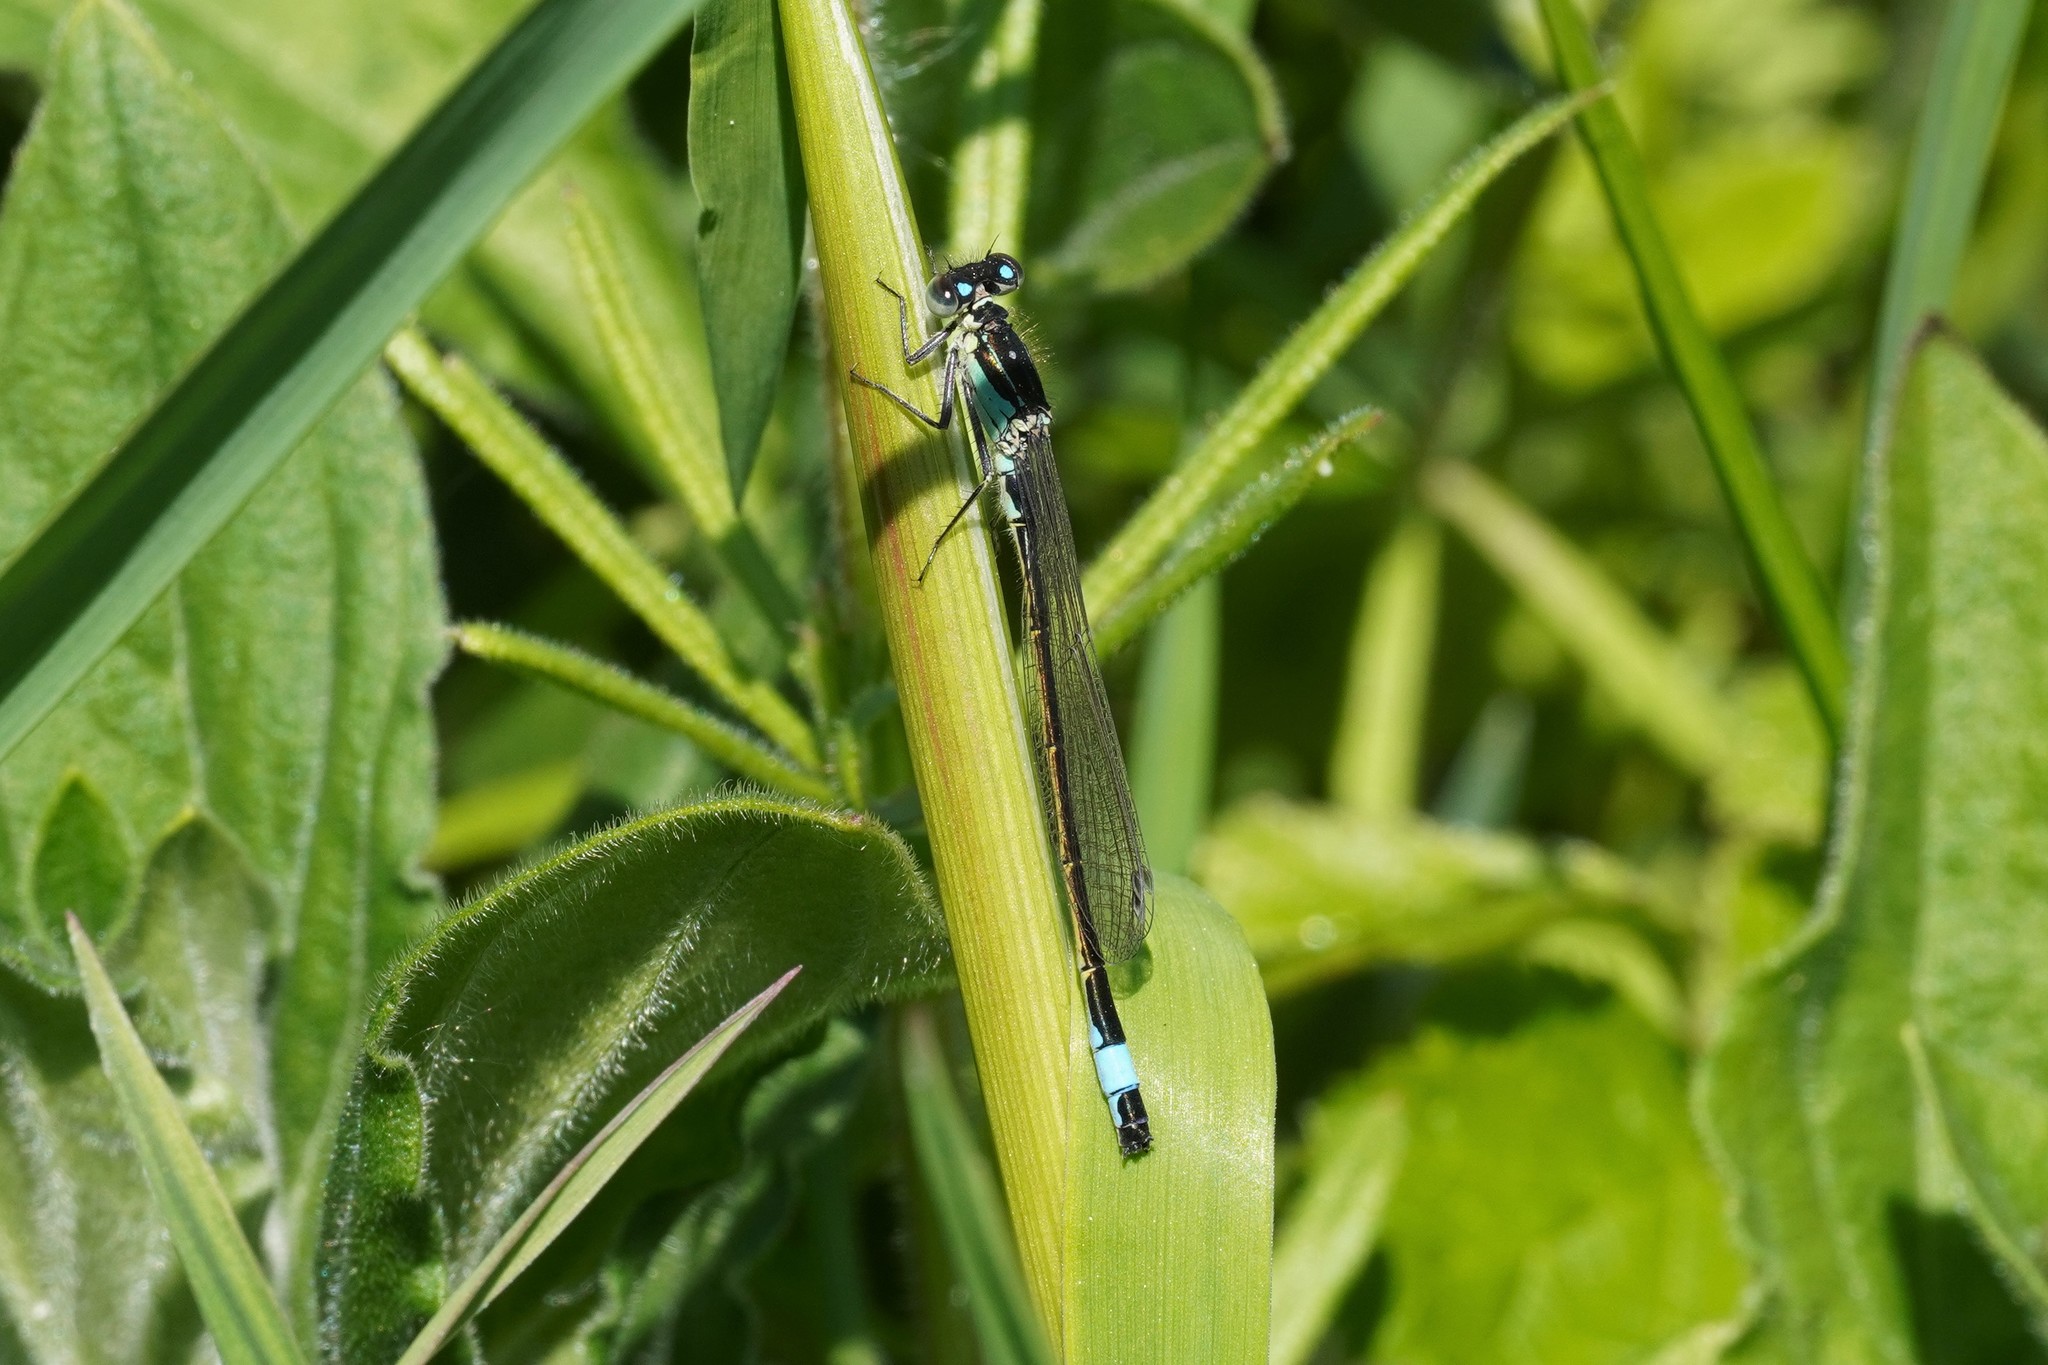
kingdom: Animalia
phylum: Arthropoda
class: Insecta
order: Odonata
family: Coenagrionidae
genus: Ischnura
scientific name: Ischnura elegans
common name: Blue-tailed damselfly
